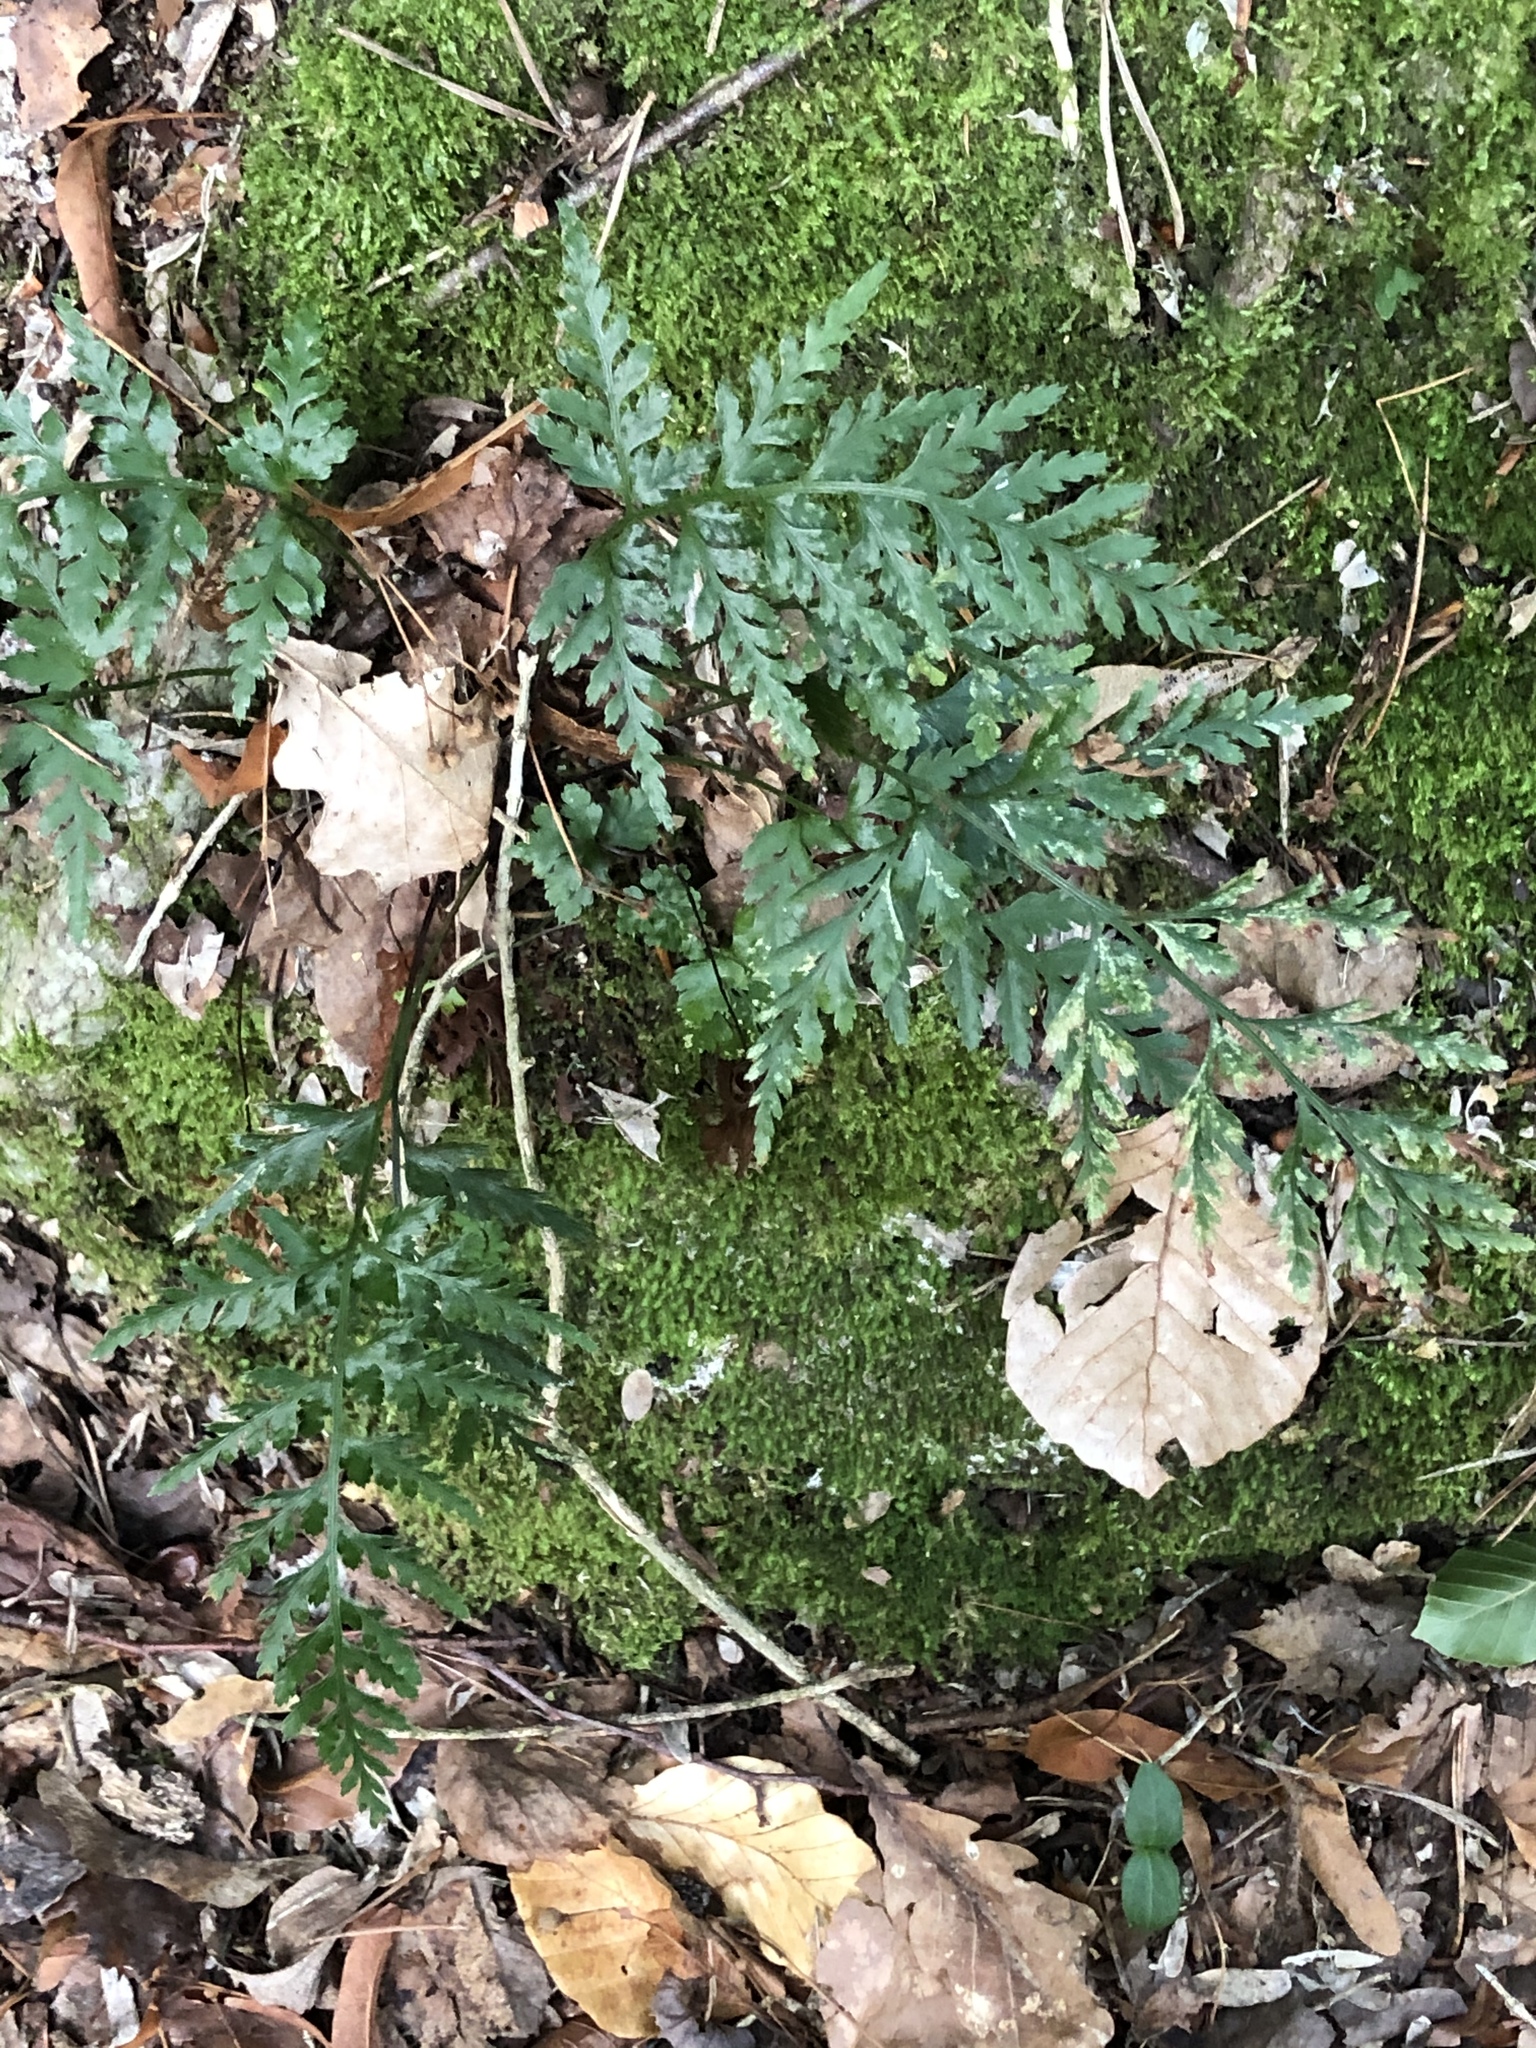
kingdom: Plantae
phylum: Tracheophyta
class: Polypodiopsida
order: Polypodiales
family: Aspleniaceae
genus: Asplenium
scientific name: Asplenium onopteris
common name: Irish spleenwort
